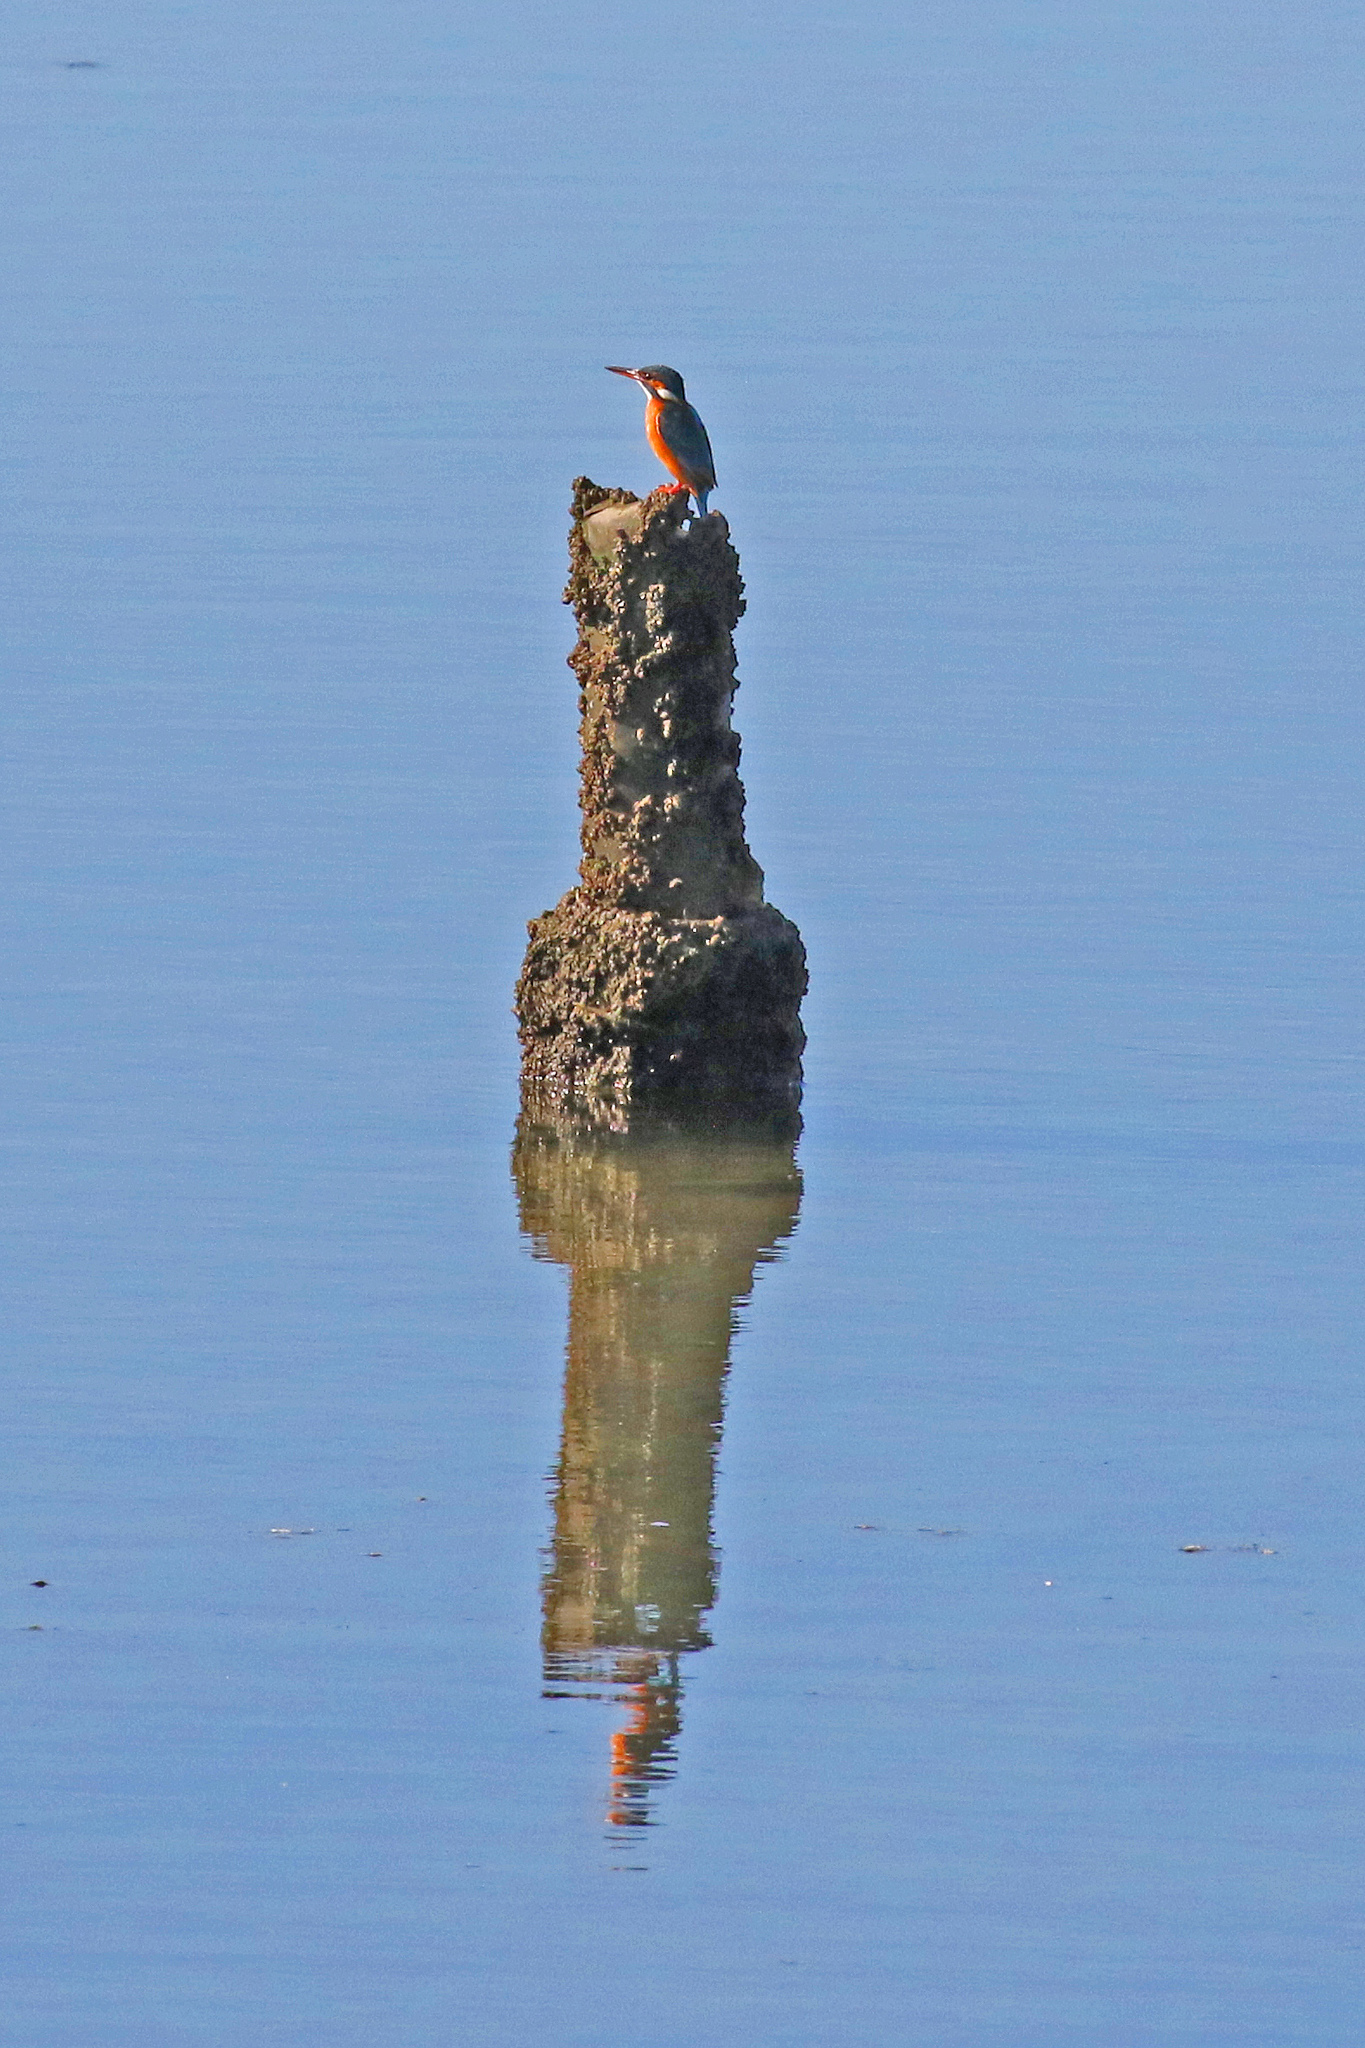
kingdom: Animalia
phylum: Chordata
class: Aves
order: Coraciiformes
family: Alcedinidae
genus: Alcedo
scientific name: Alcedo atthis
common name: Common kingfisher
